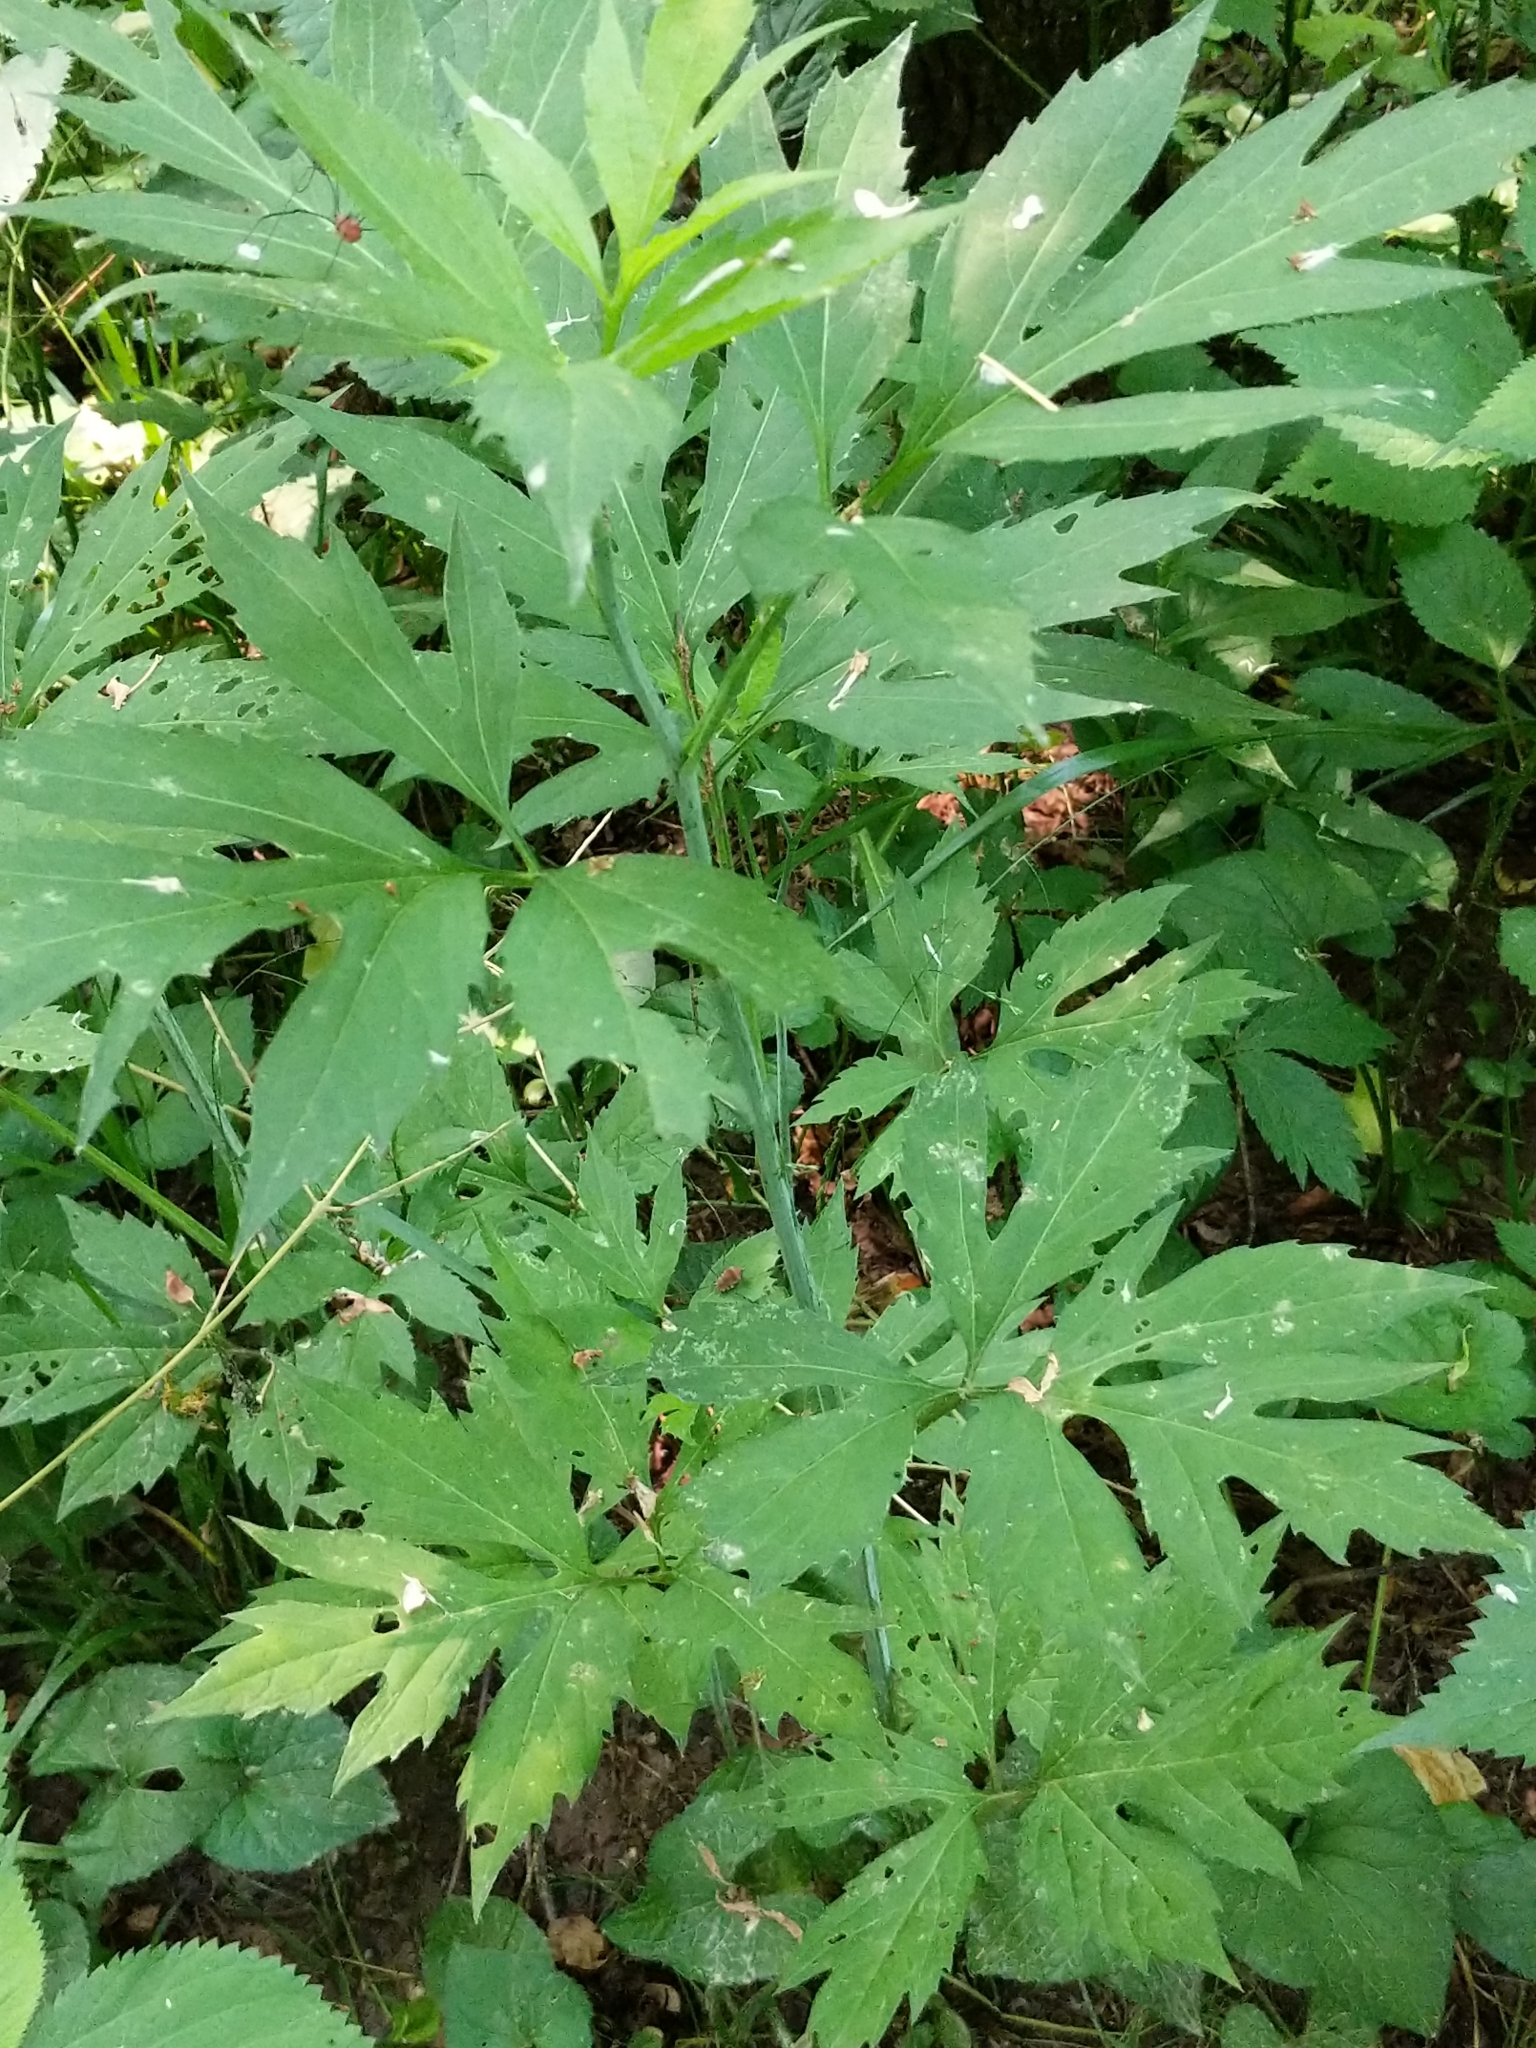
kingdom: Plantae
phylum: Tracheophyta
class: Magnoliopsida
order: Asterales
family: Asteraceae
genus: Rudbeckia
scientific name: Rudbeckia laciniata
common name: Coneflower
